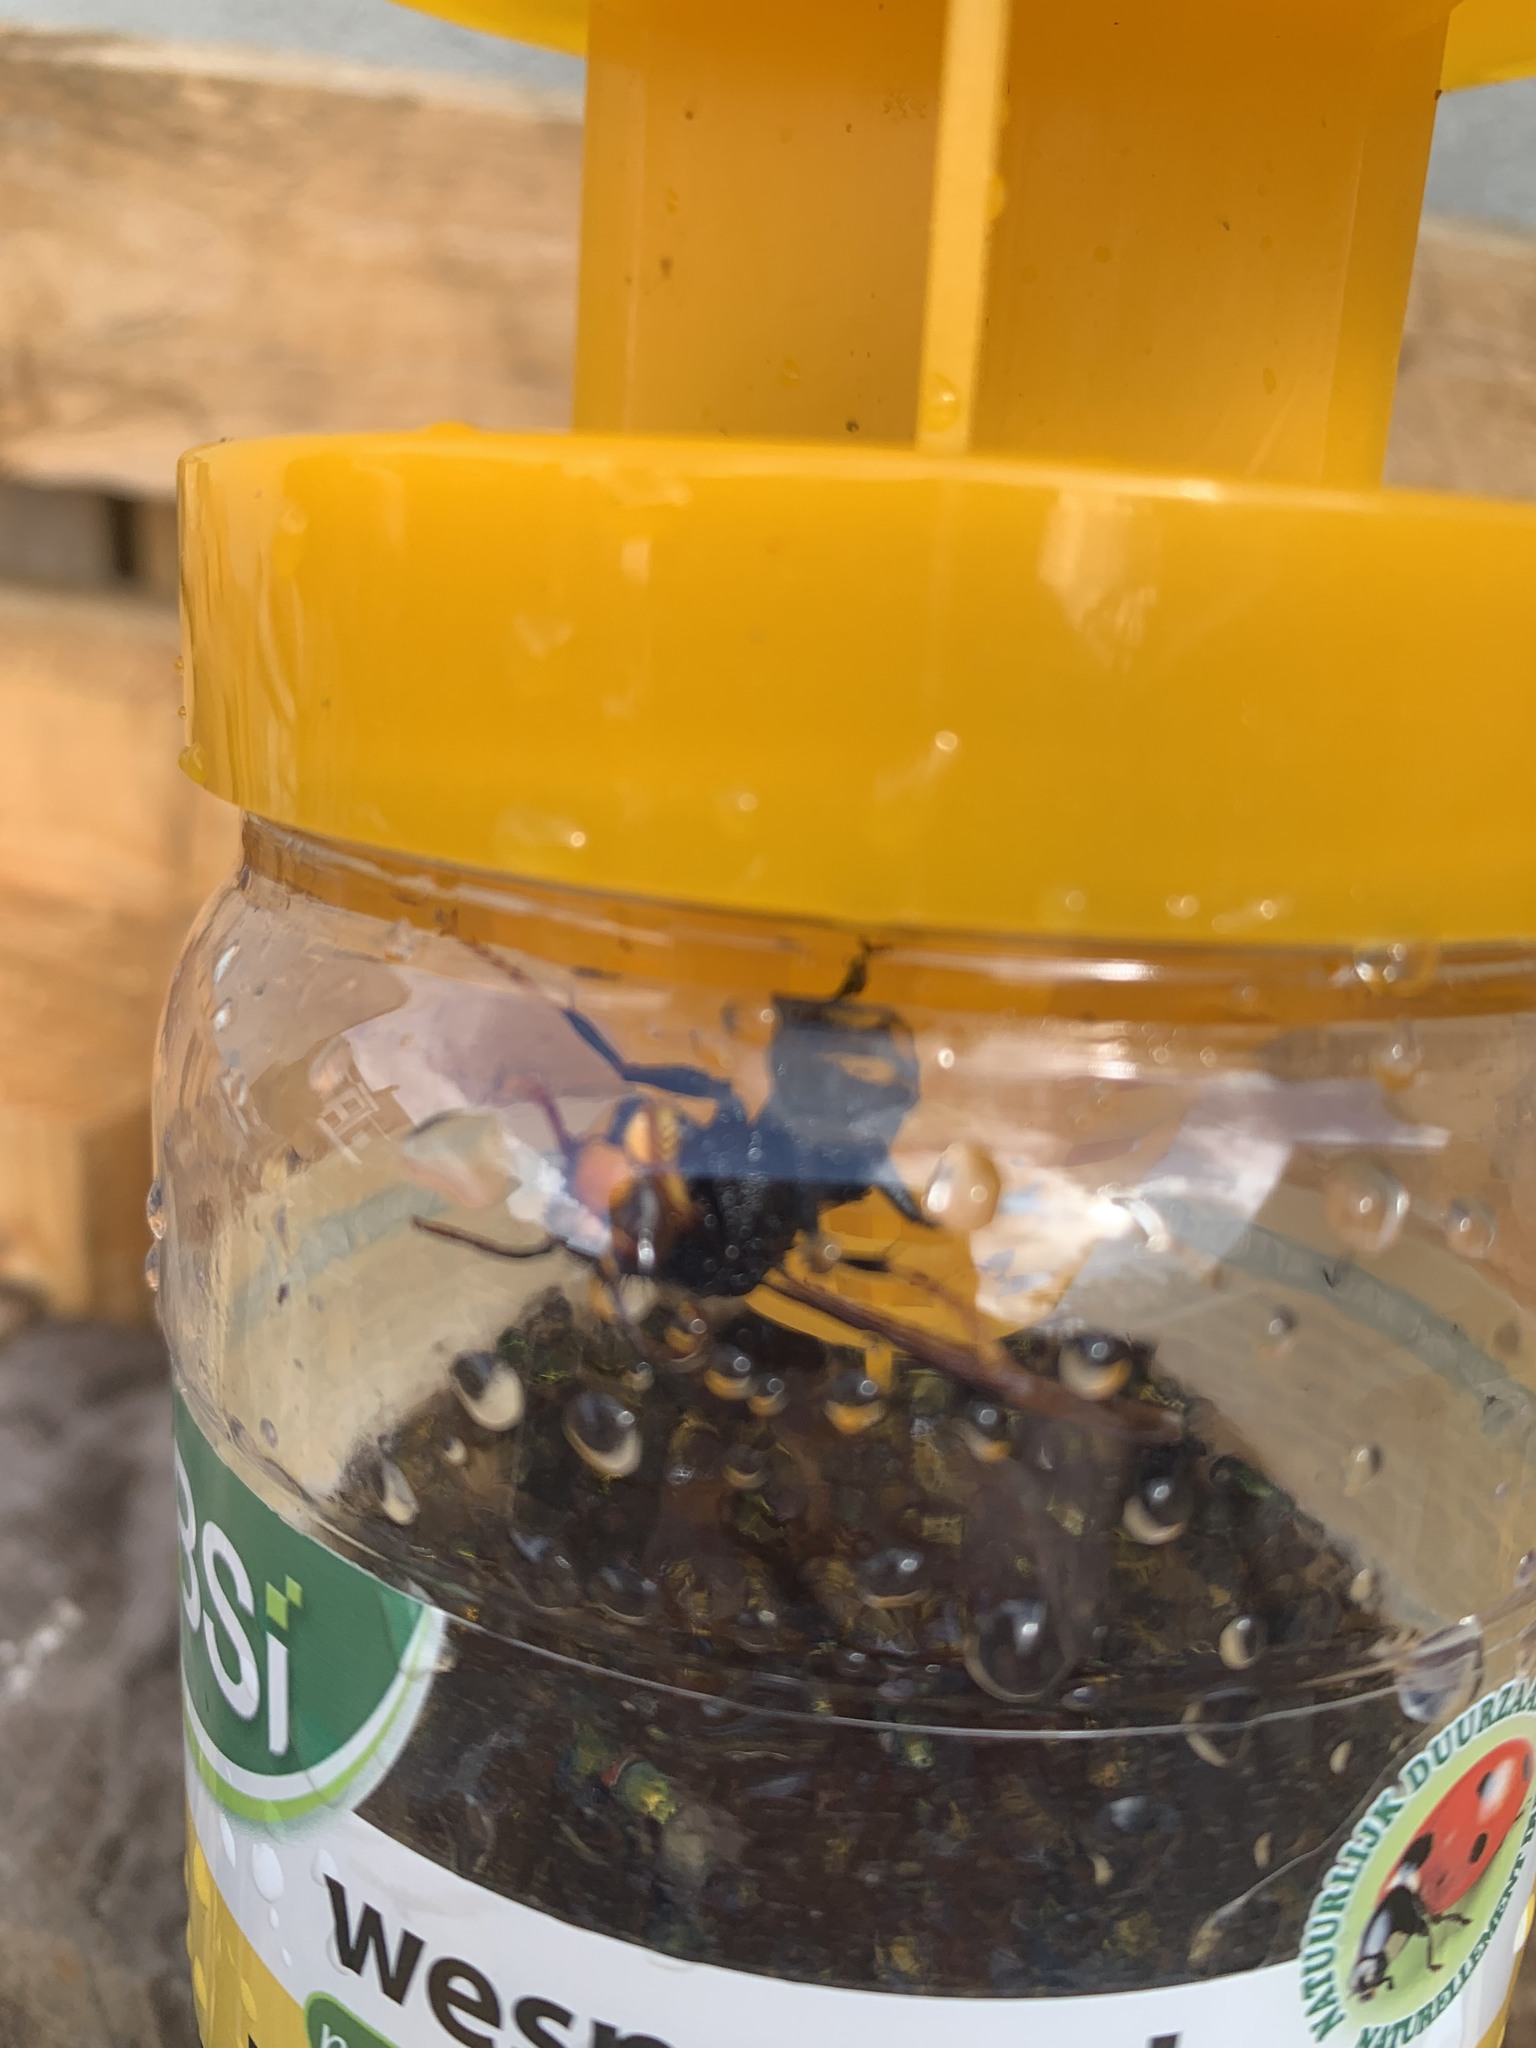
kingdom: Animalia
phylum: Arthropoda
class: Insecta
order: Hymenoptera
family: Vespidae
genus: Vespa
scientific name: Vespa velutina
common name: Asian hornet
